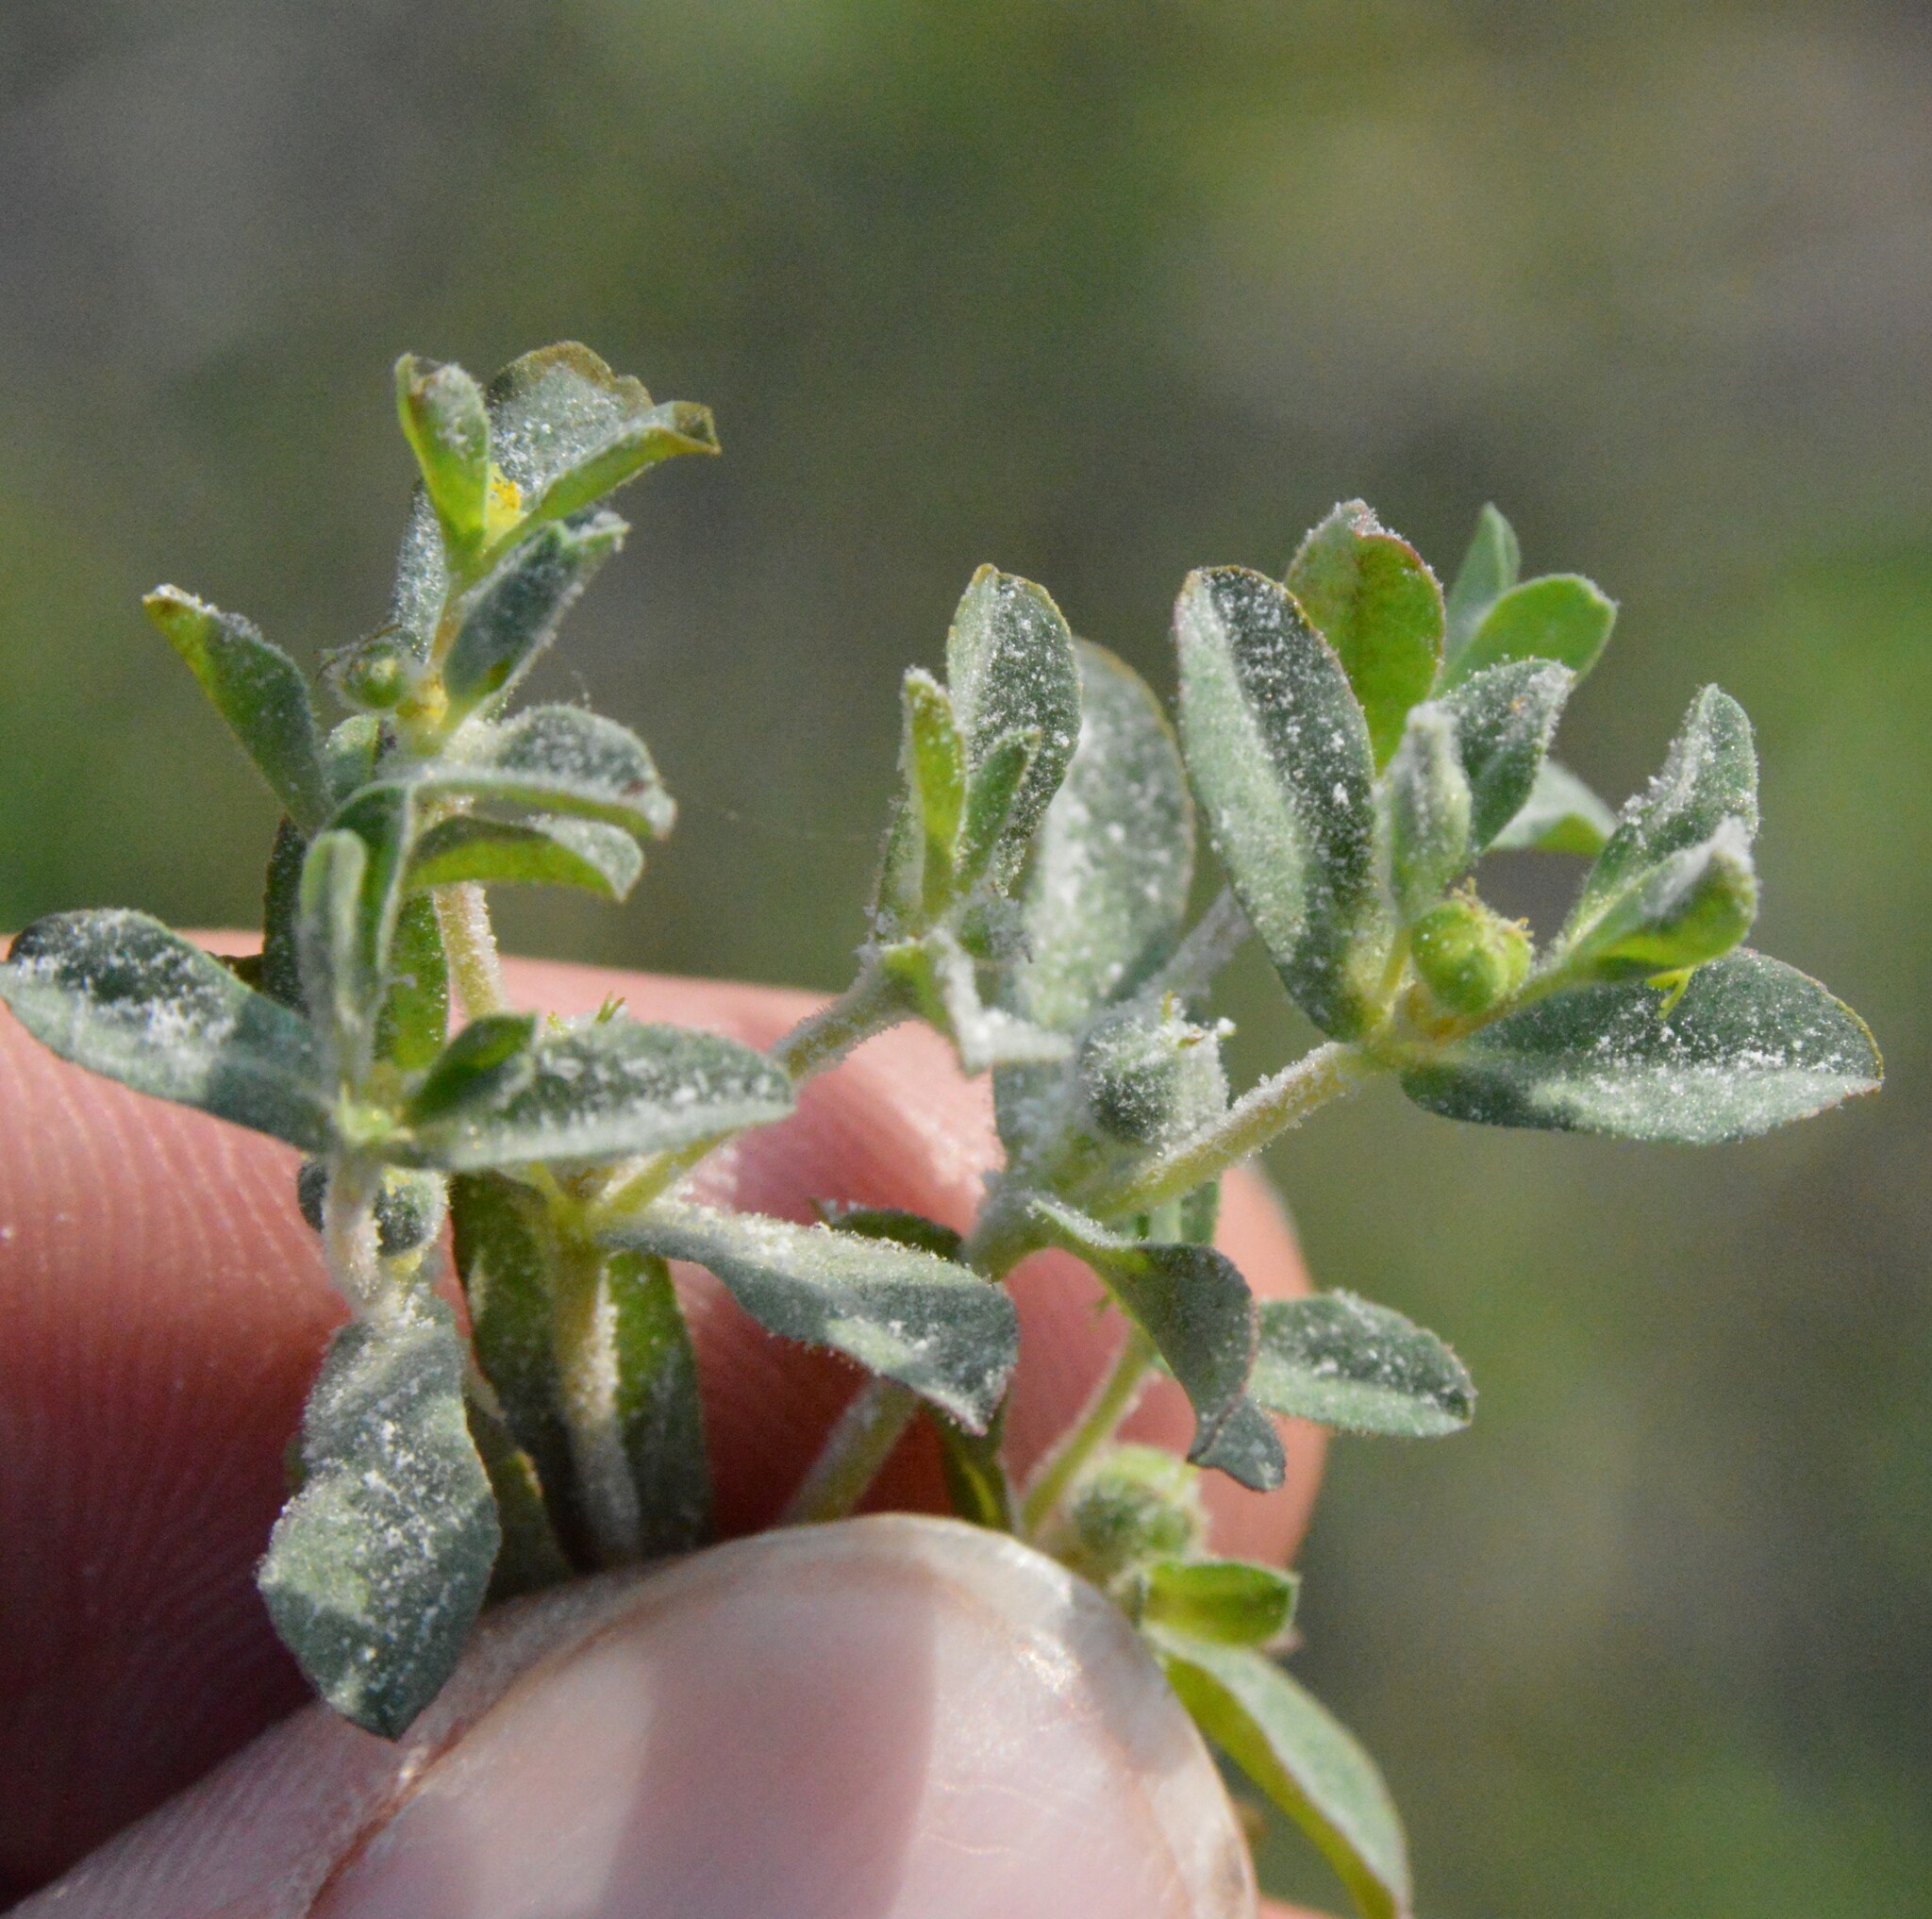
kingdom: Plantae
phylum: Tracheophyta
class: Magnoliopsida
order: Malpighiales
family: Euphorbiaceae
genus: Euphorbia
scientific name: Euphorbia texana
